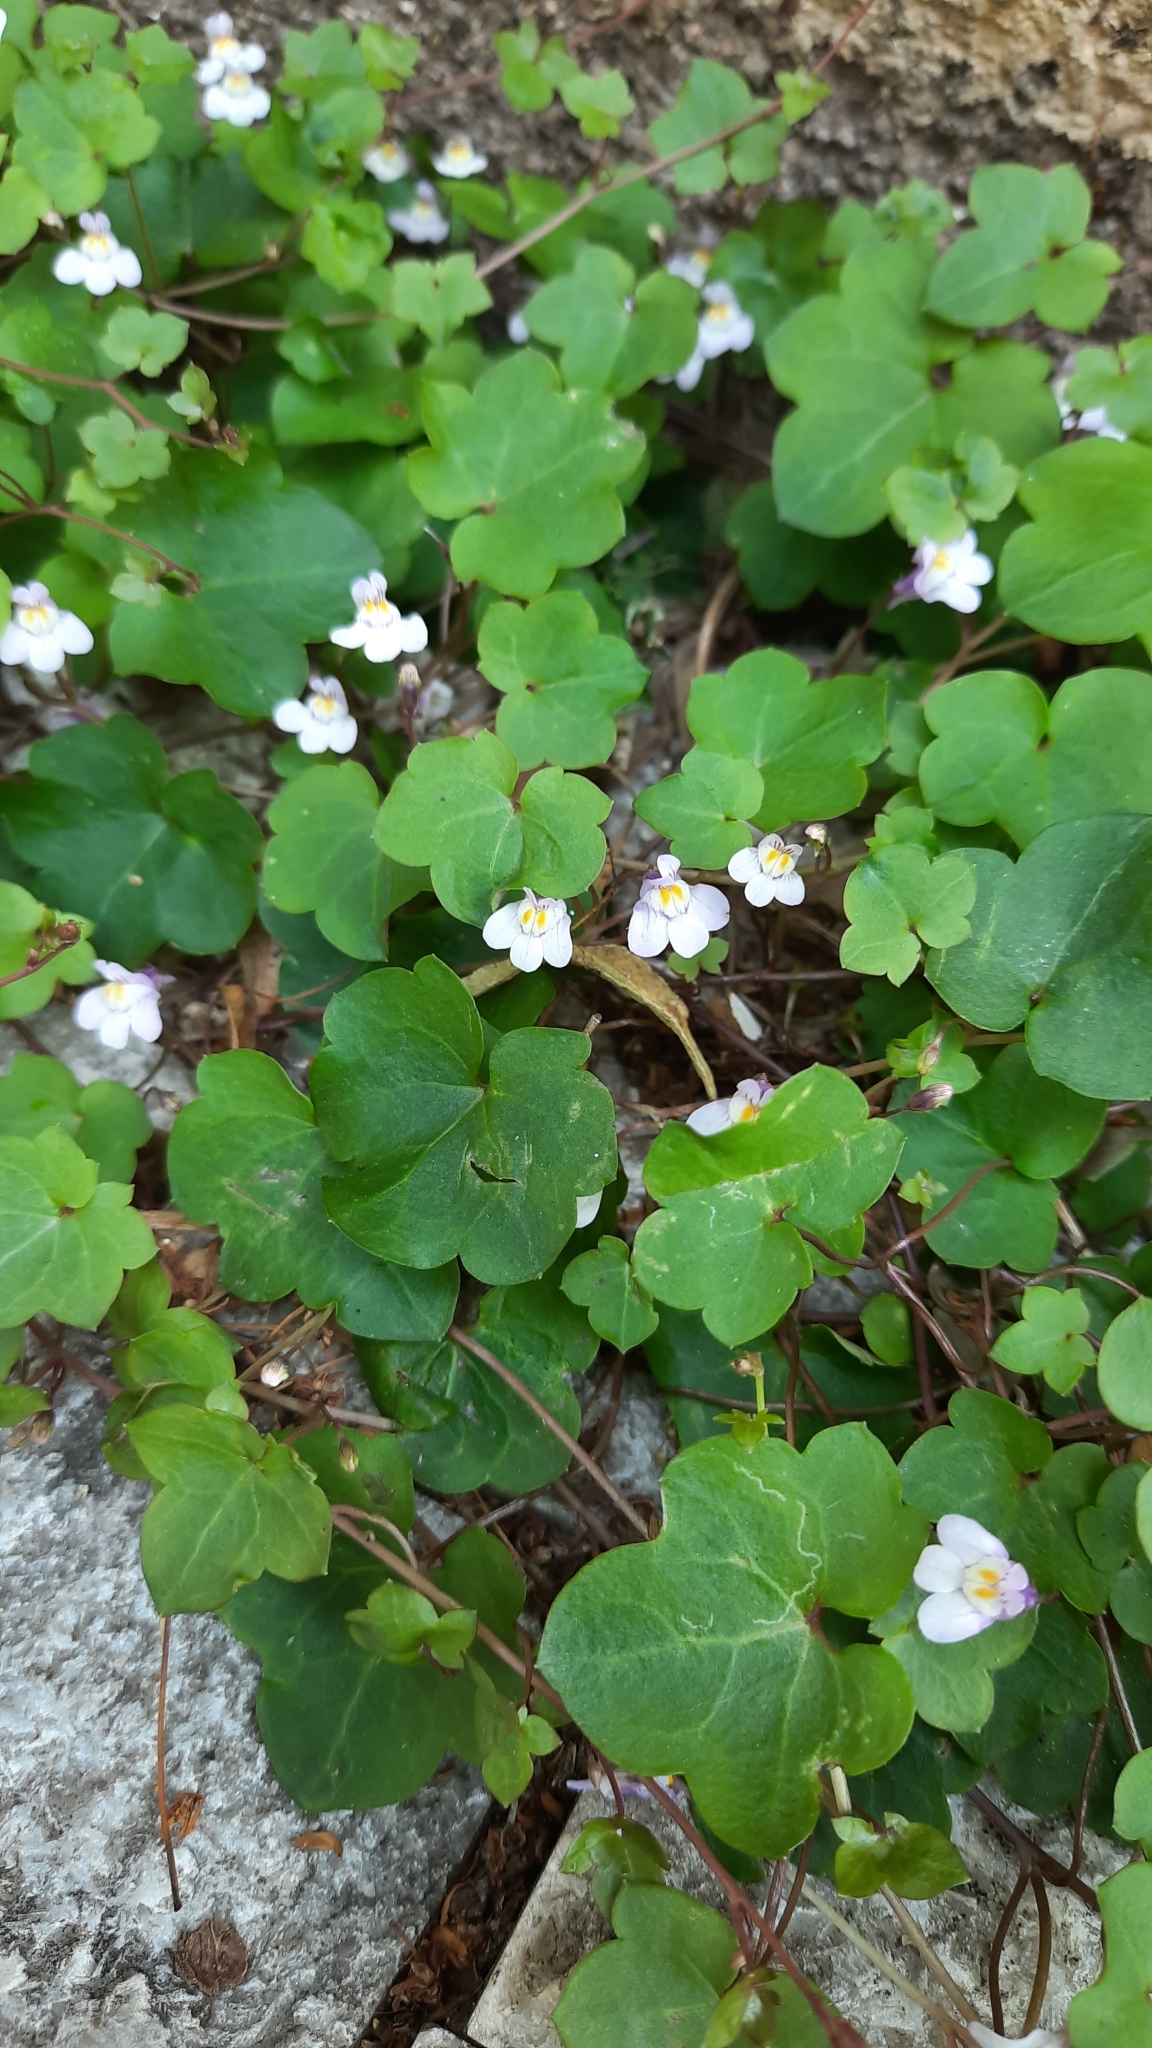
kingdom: Plantae
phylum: Tracheophyta
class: Magnoliopsida
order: Lamiales
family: Plantaginaceae
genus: Cymbalaria
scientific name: Cymbalaria muralis
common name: Ivy-leaved toadflax
